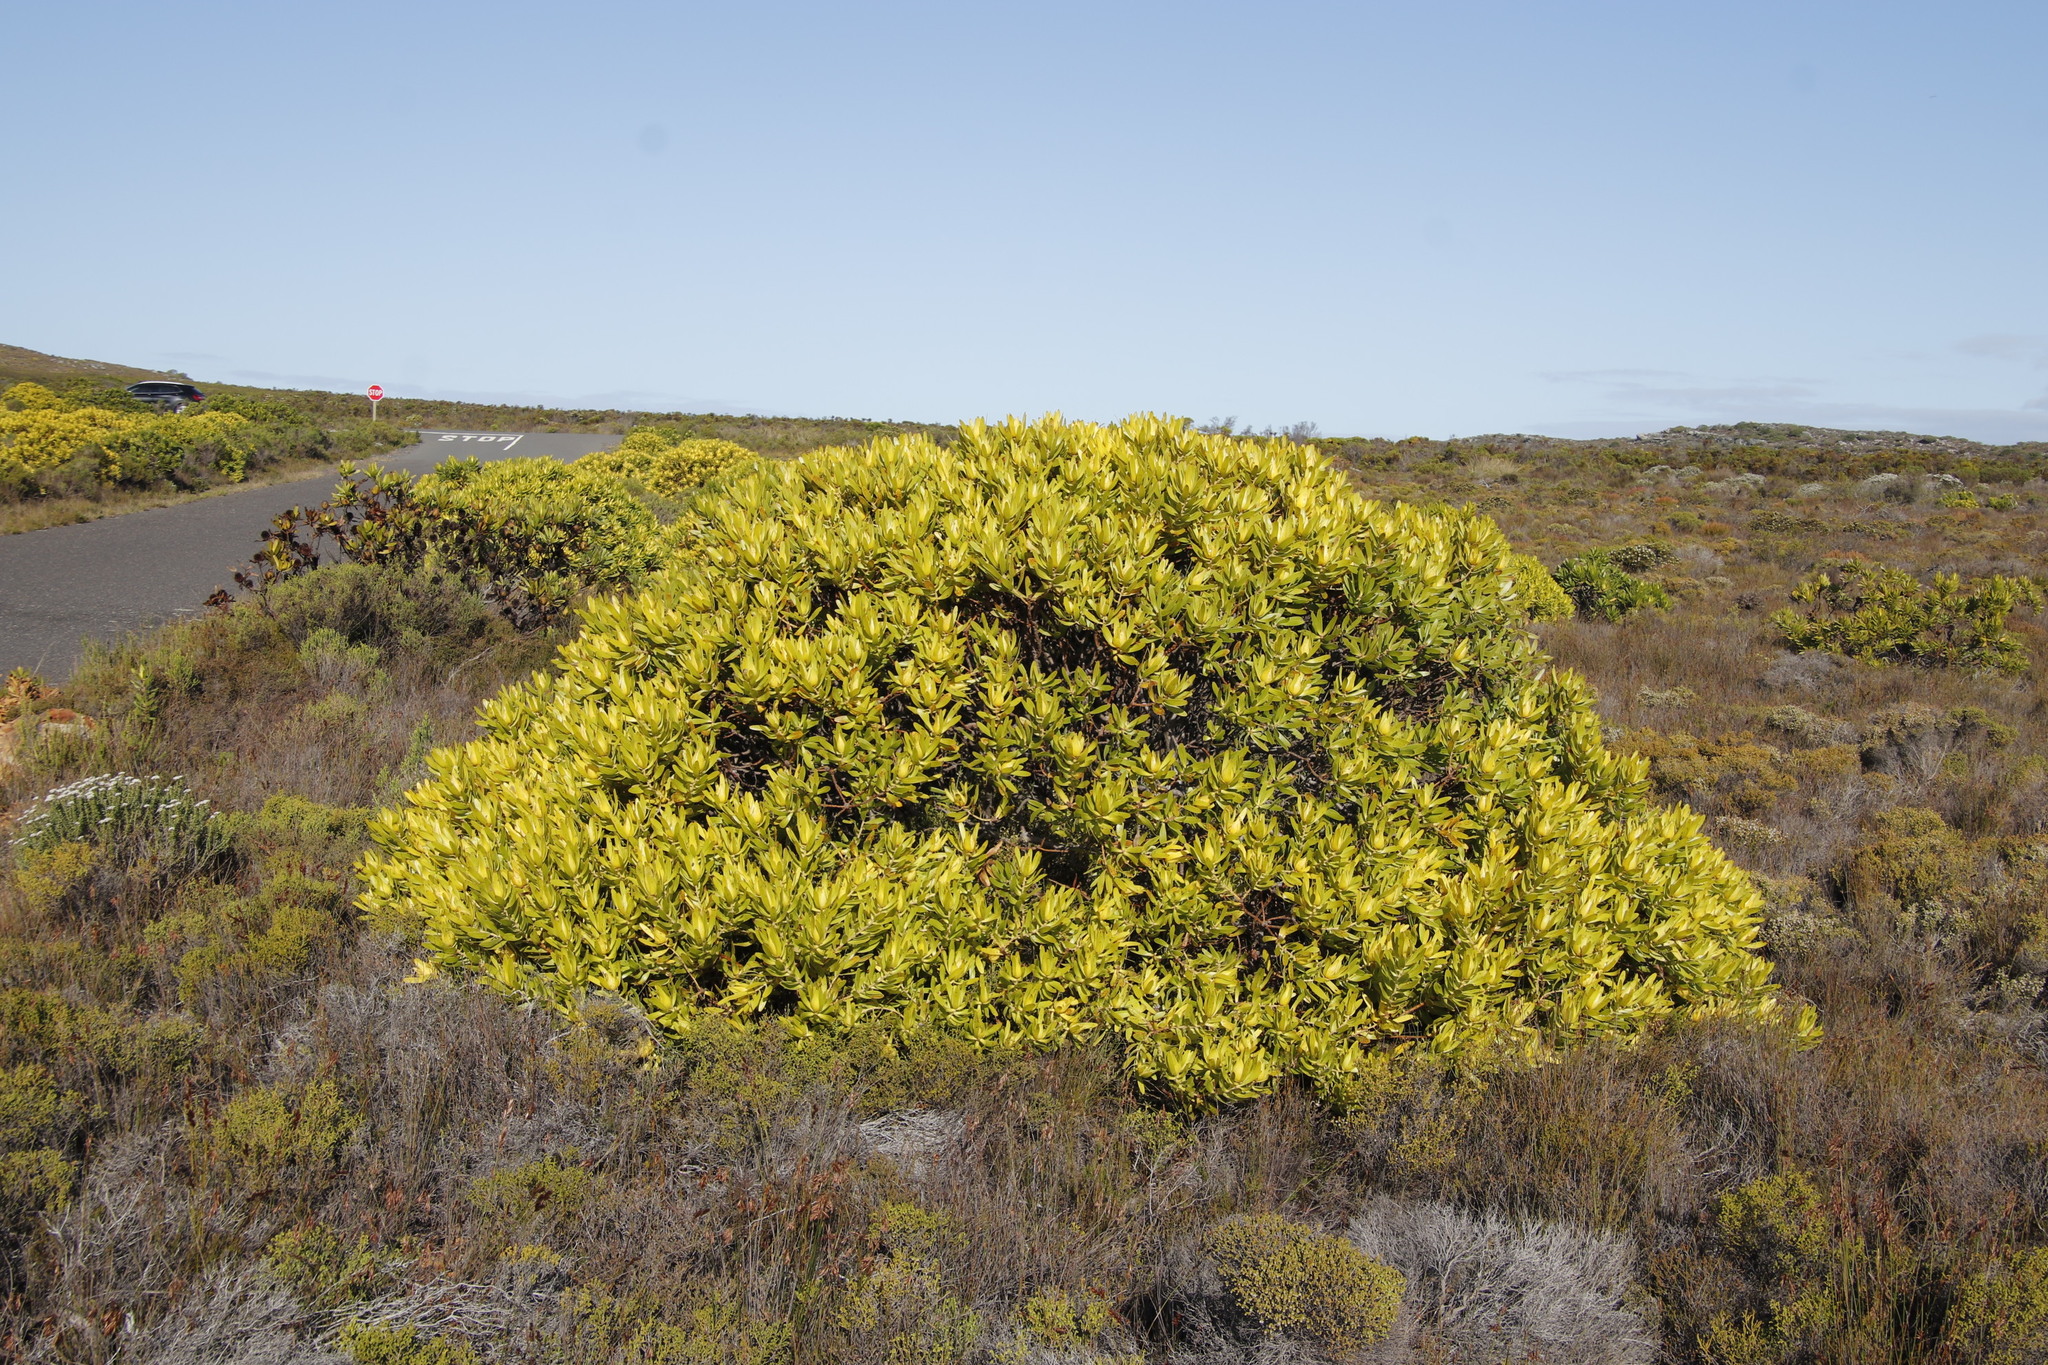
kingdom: Plantae
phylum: Tracheophyta
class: Magnoliopsida
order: Proteales
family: Proteaceae
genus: Leucadendron
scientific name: Leucadendron laureolum
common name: Golden sunshinebush
